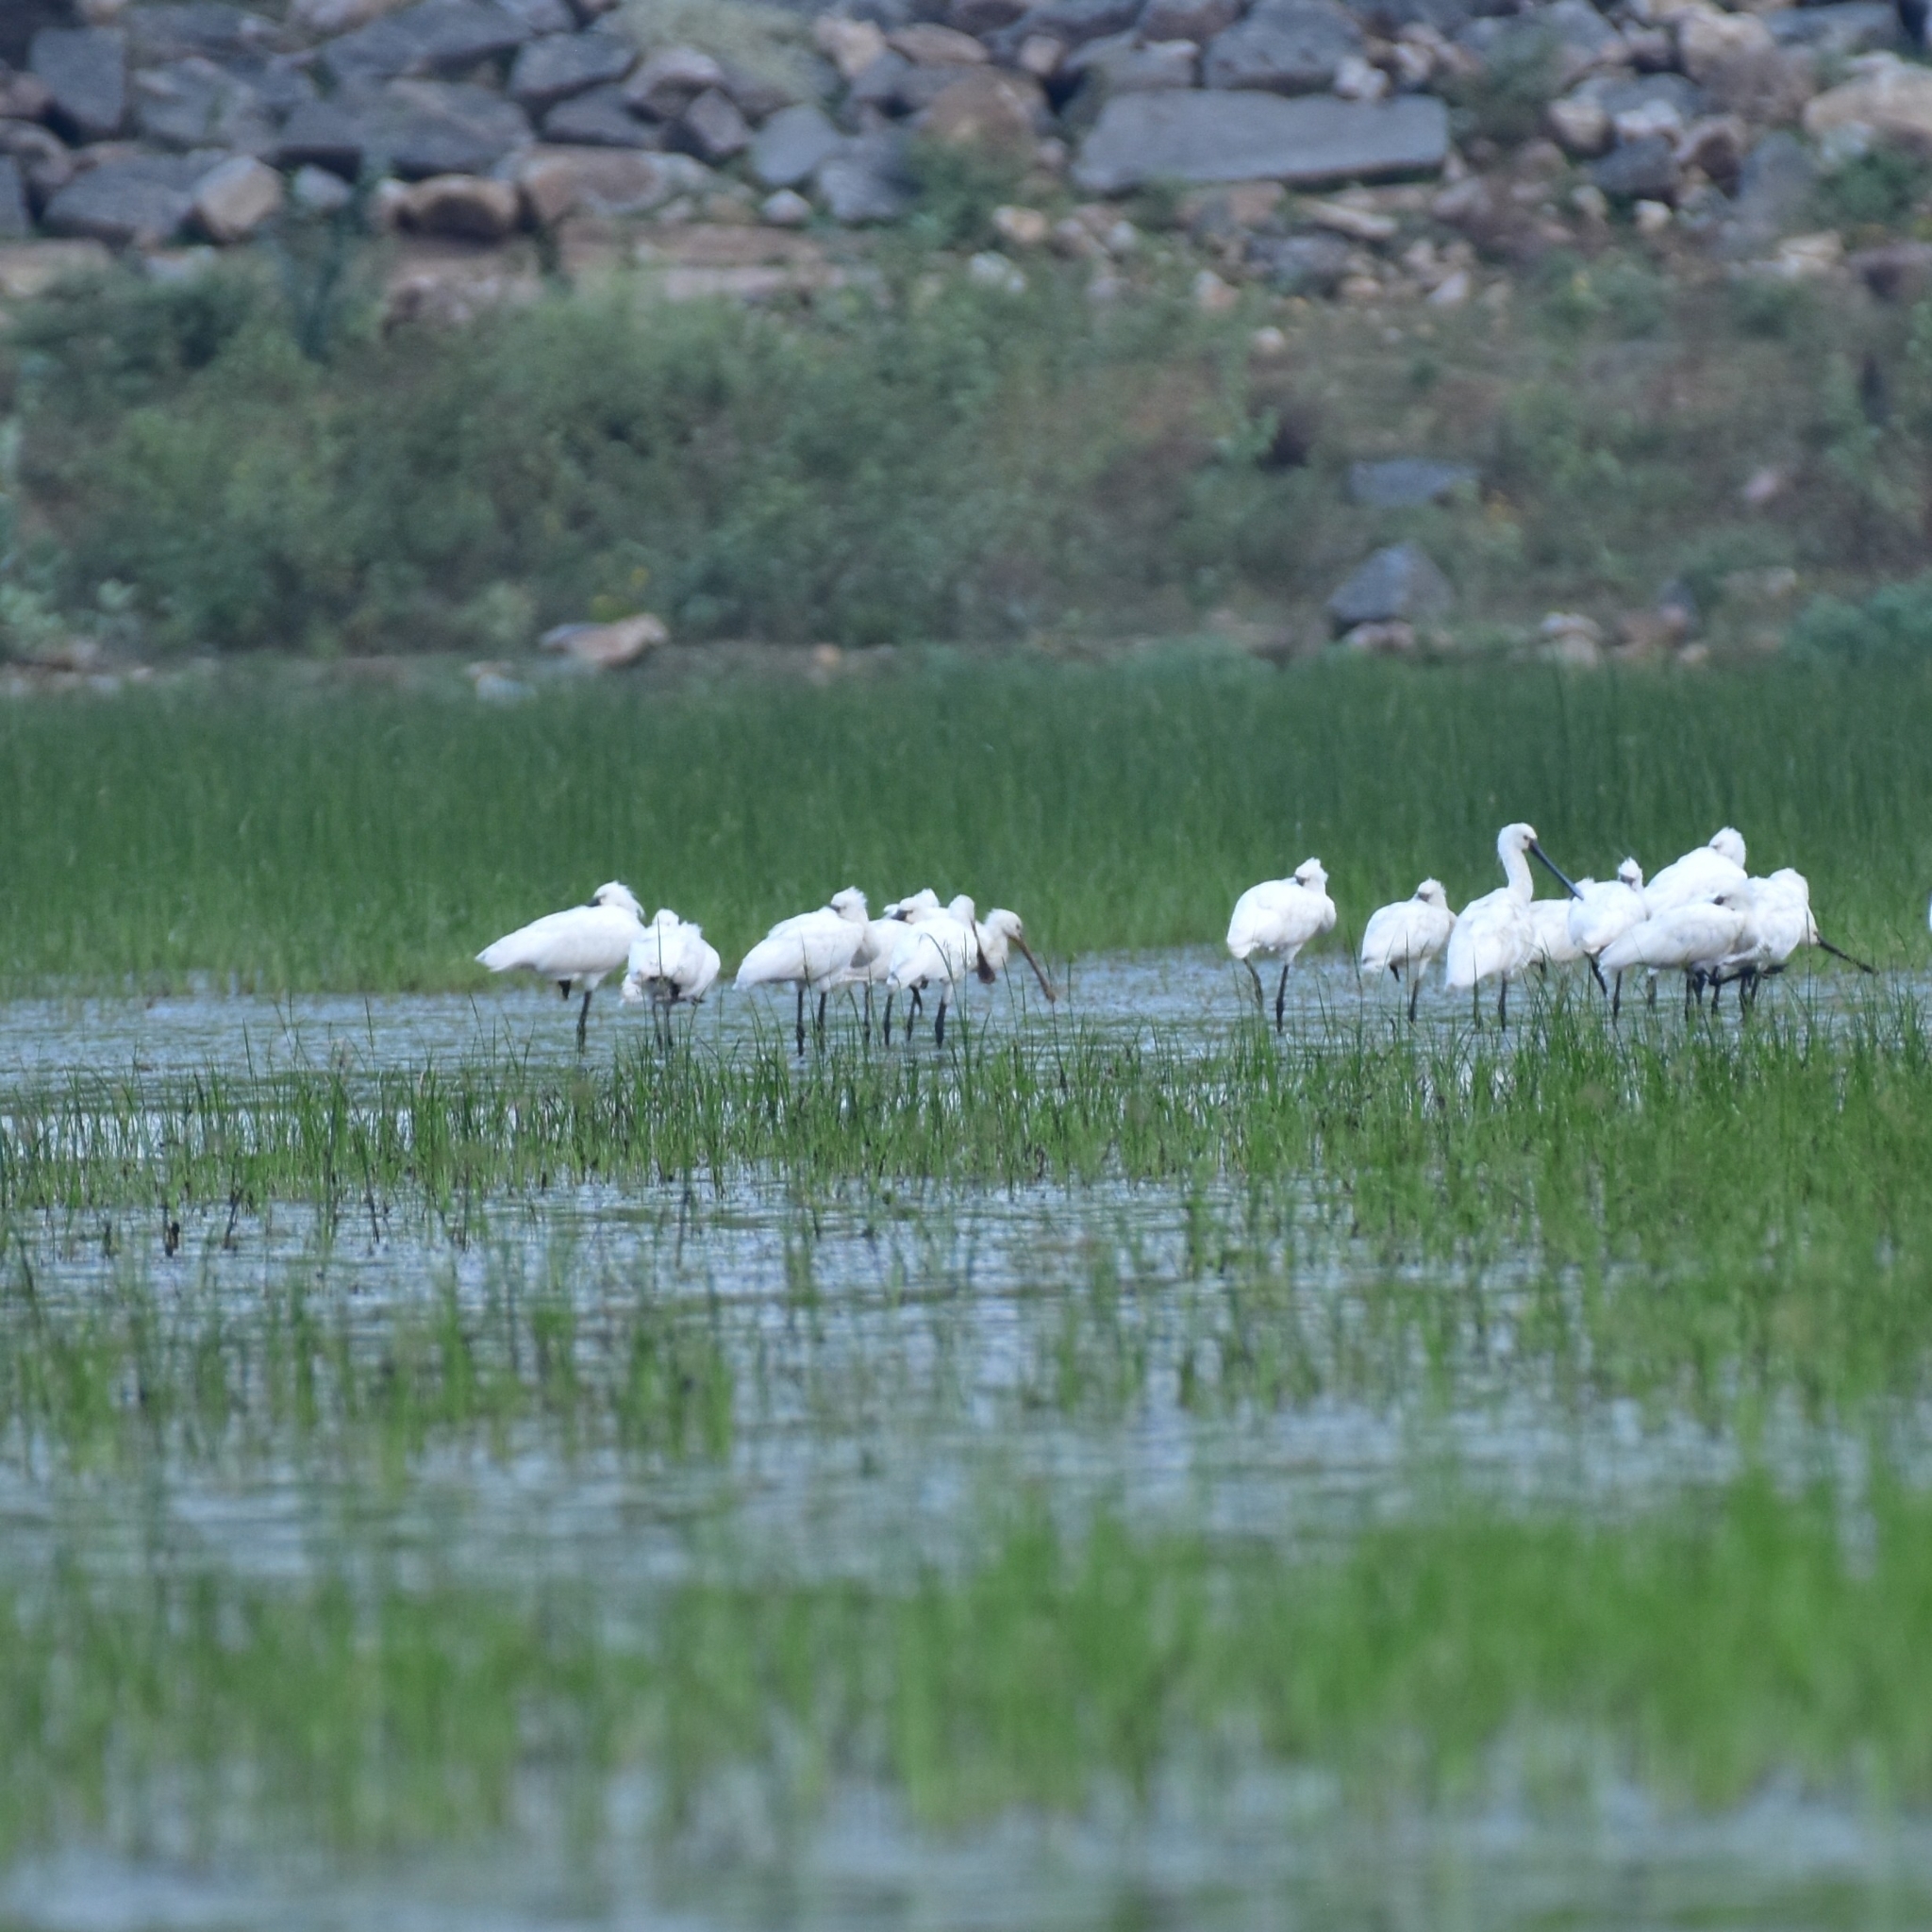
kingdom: Animalia
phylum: Chordata
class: Aves
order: Pelecaniformes
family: Threskiornithidae
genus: Platalea
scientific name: Platalea leucorodia
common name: Eurasian spoonbill
